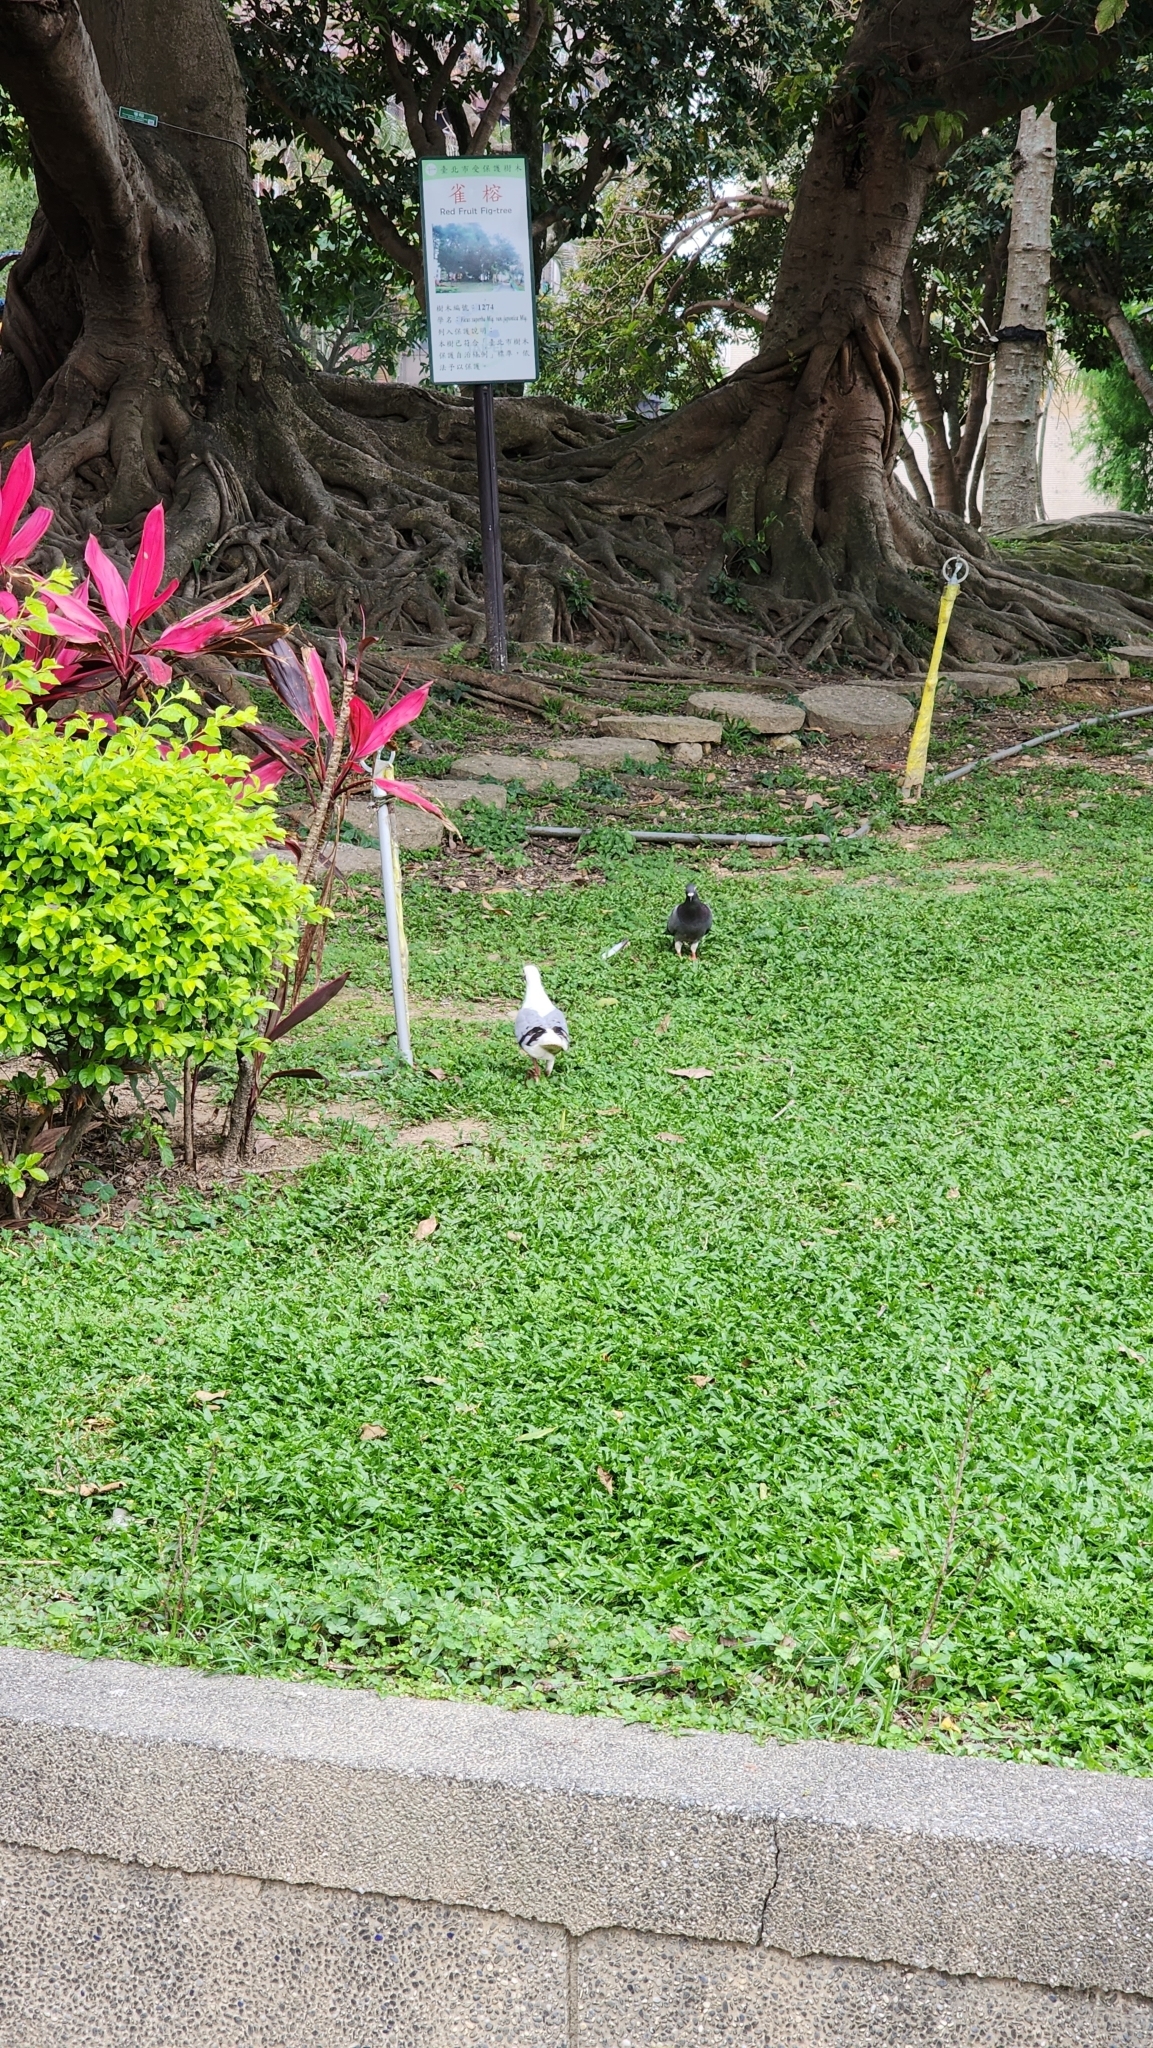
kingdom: Animalia
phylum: Chordata
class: Aves
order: Columbiformes
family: Columbidae
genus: Columba
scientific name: Columba livia
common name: Rock pigeon
